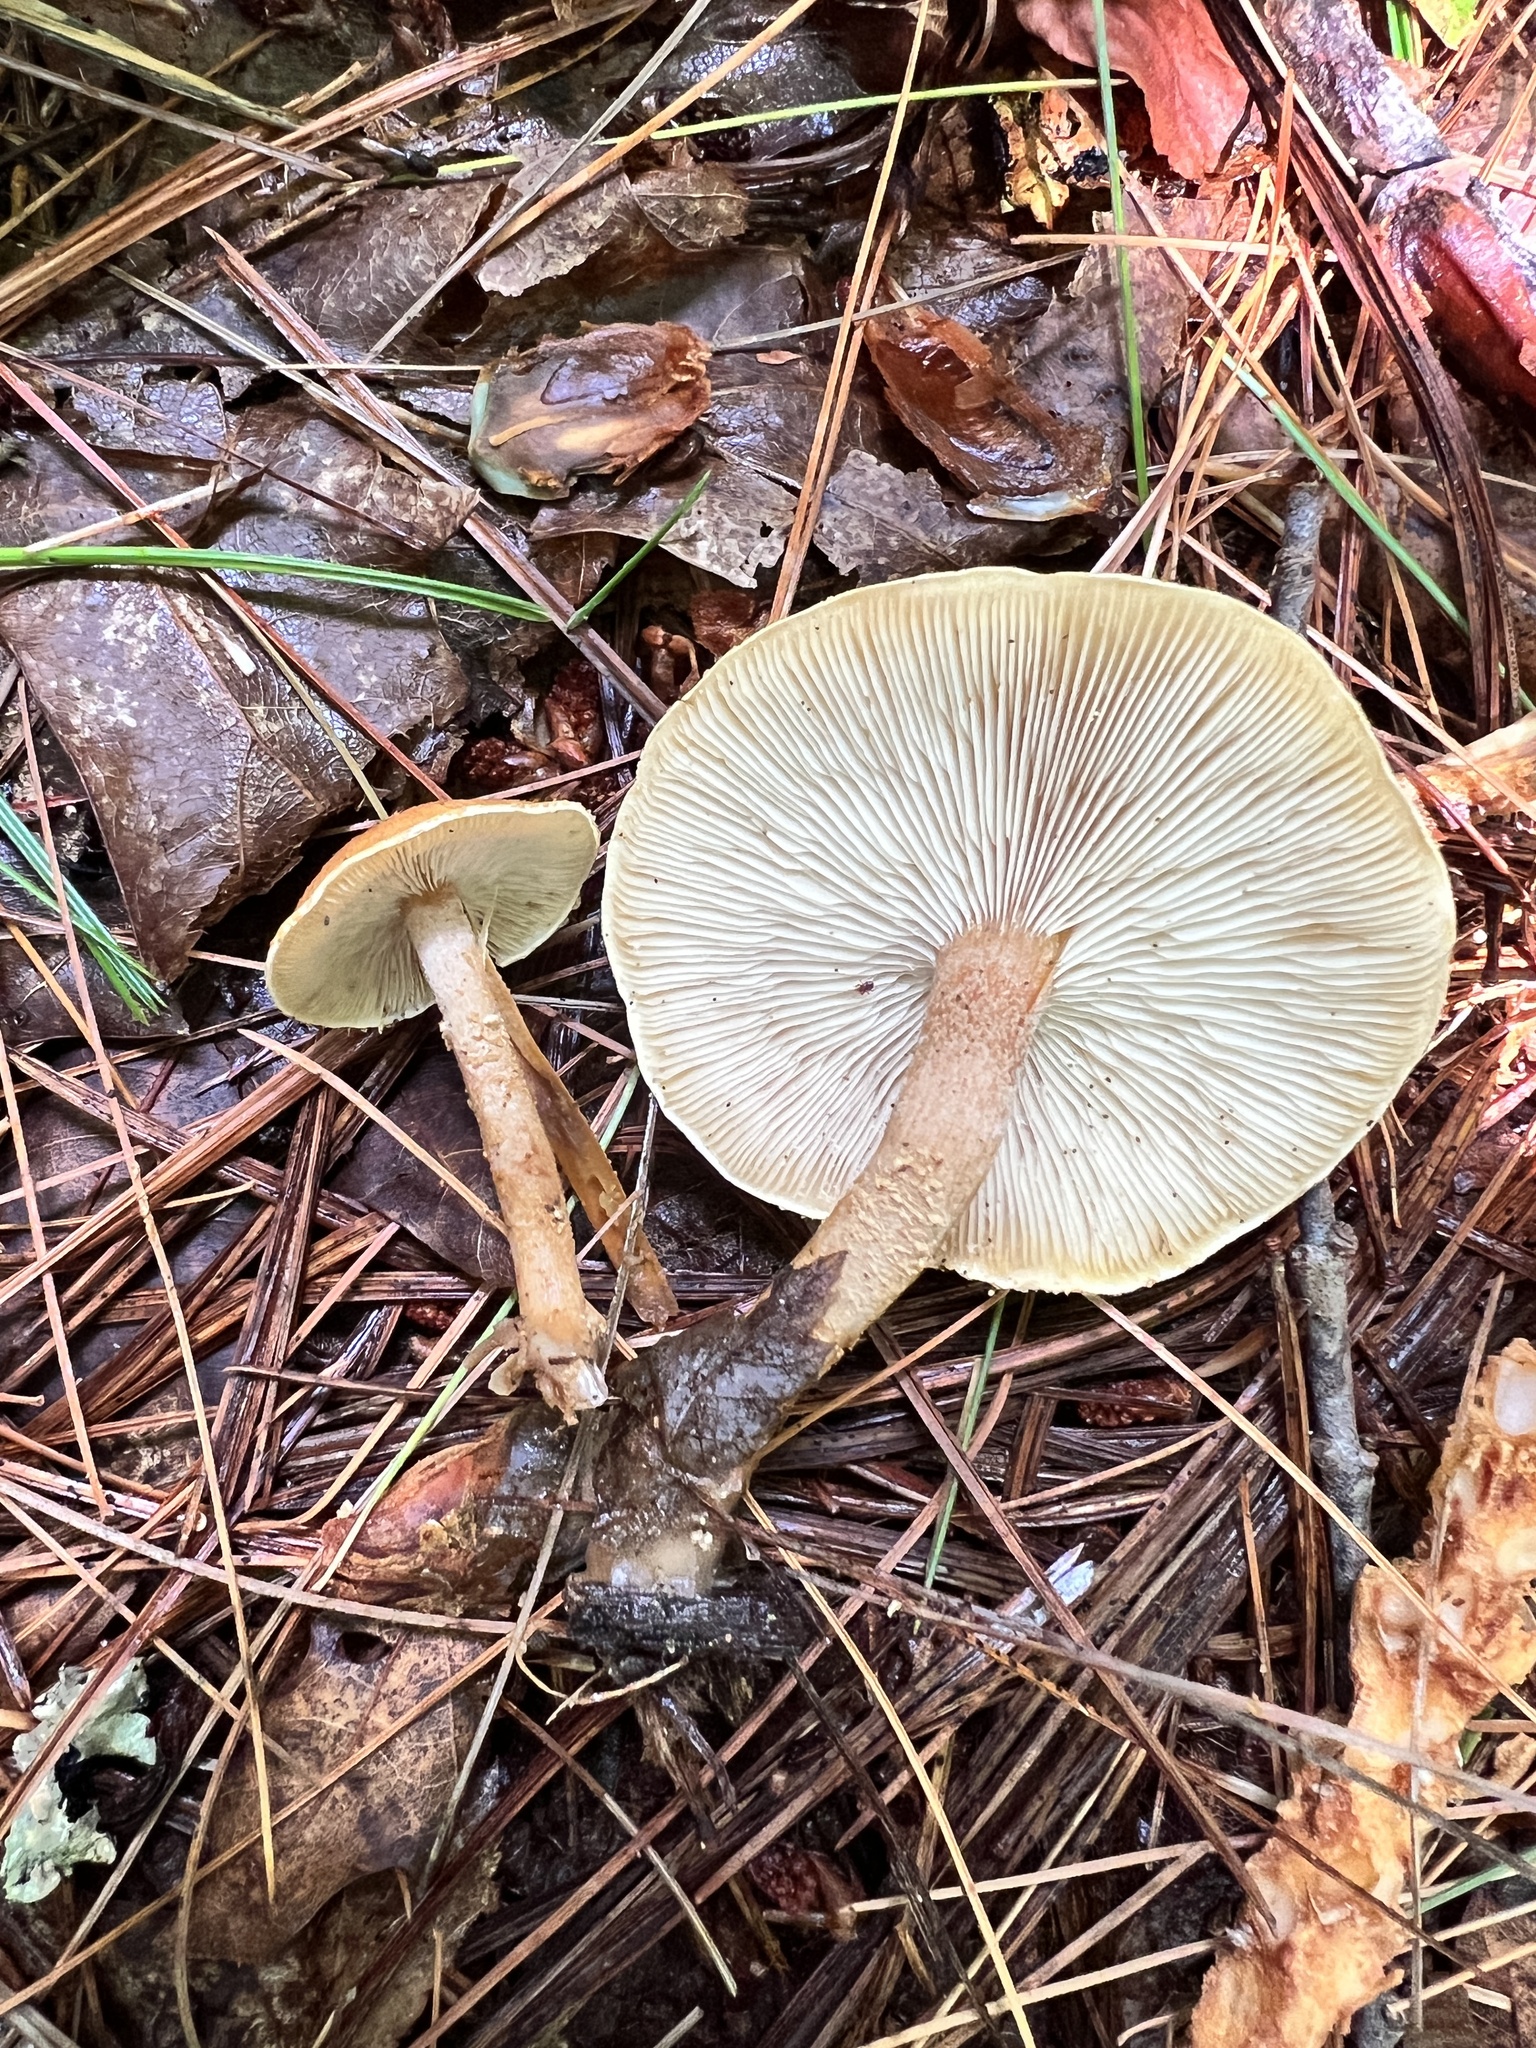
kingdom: Fungi
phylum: Basidiomycota
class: Agaricomycetes
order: Agaricales
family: Tricholomataceae
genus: Cystoderma
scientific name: Cystoderma amianthinum
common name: Earthy powdercap
